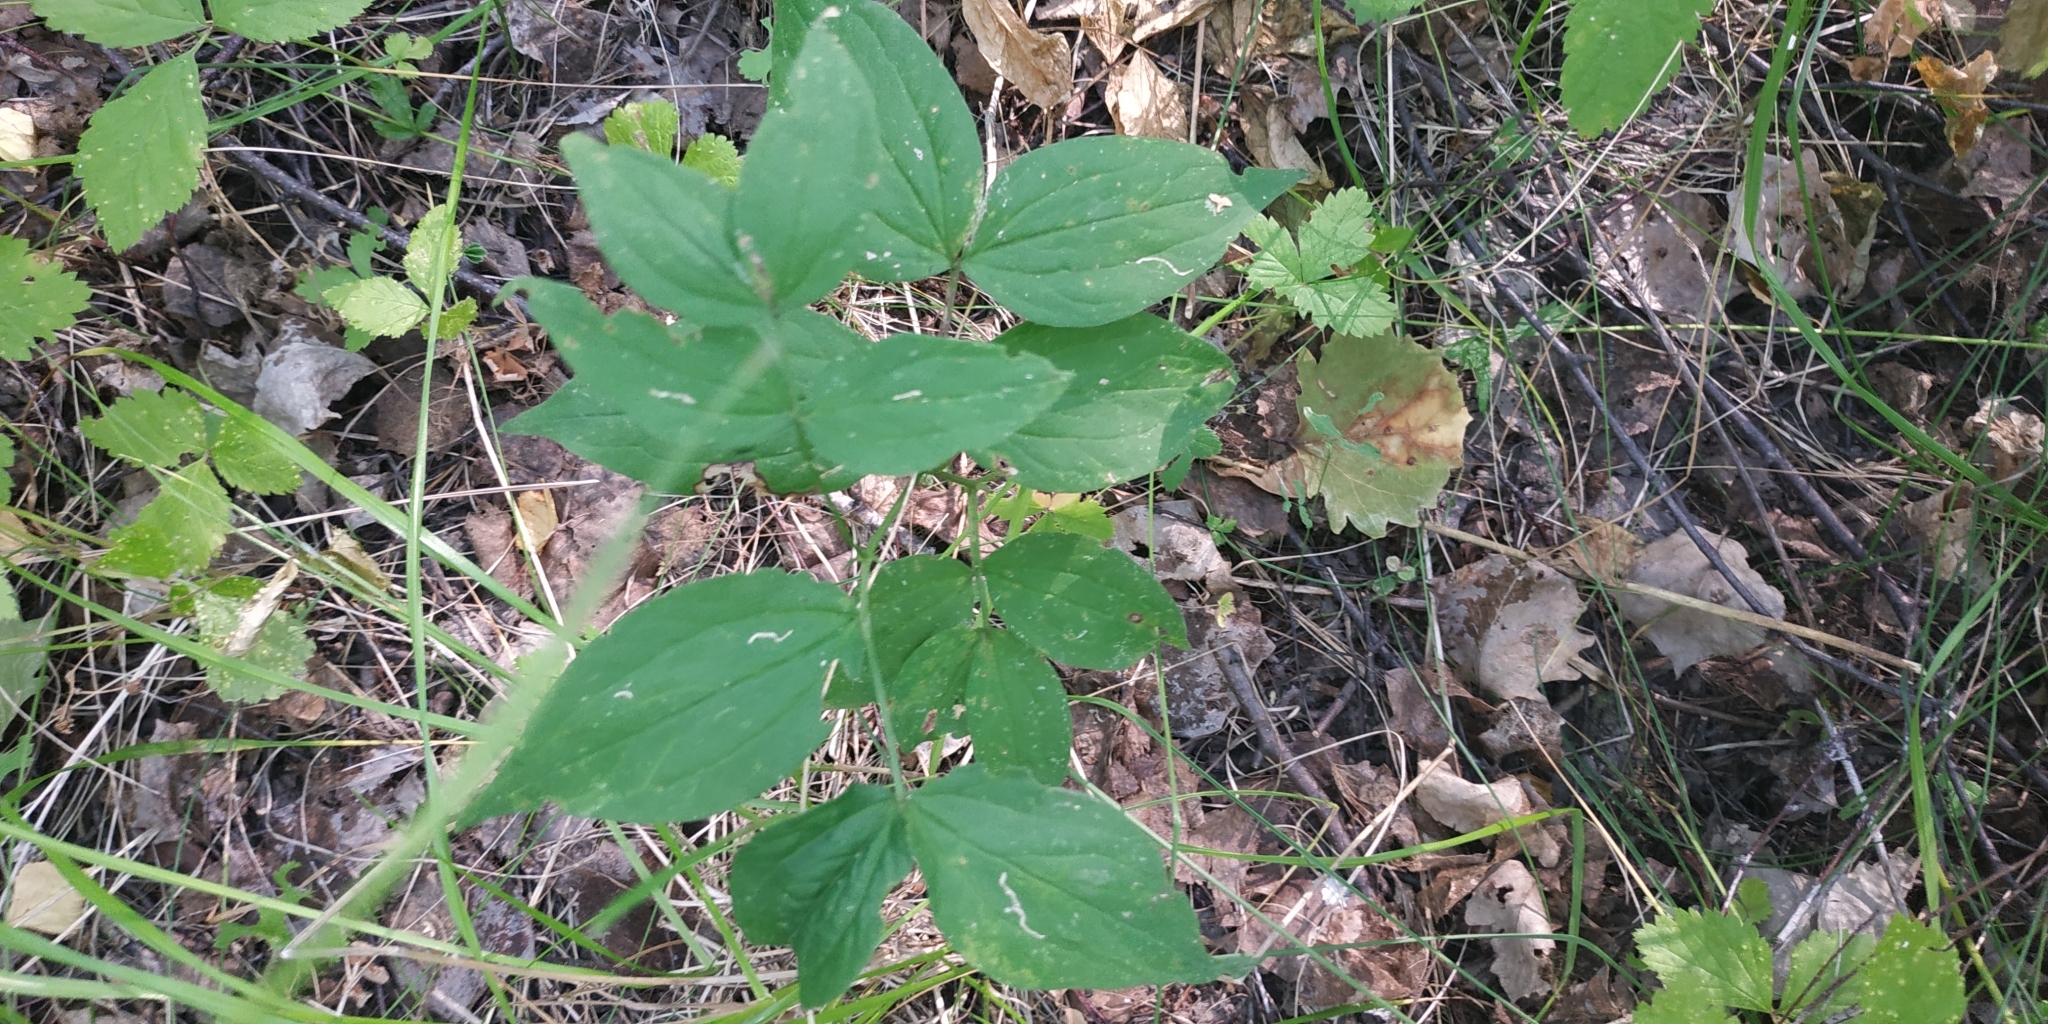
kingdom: Plantae
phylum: Tracheophyta
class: Magnoliopsida
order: Fabales
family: Fabaceae
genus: Lathyrus
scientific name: Lathyrus vernus
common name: Spring pea
